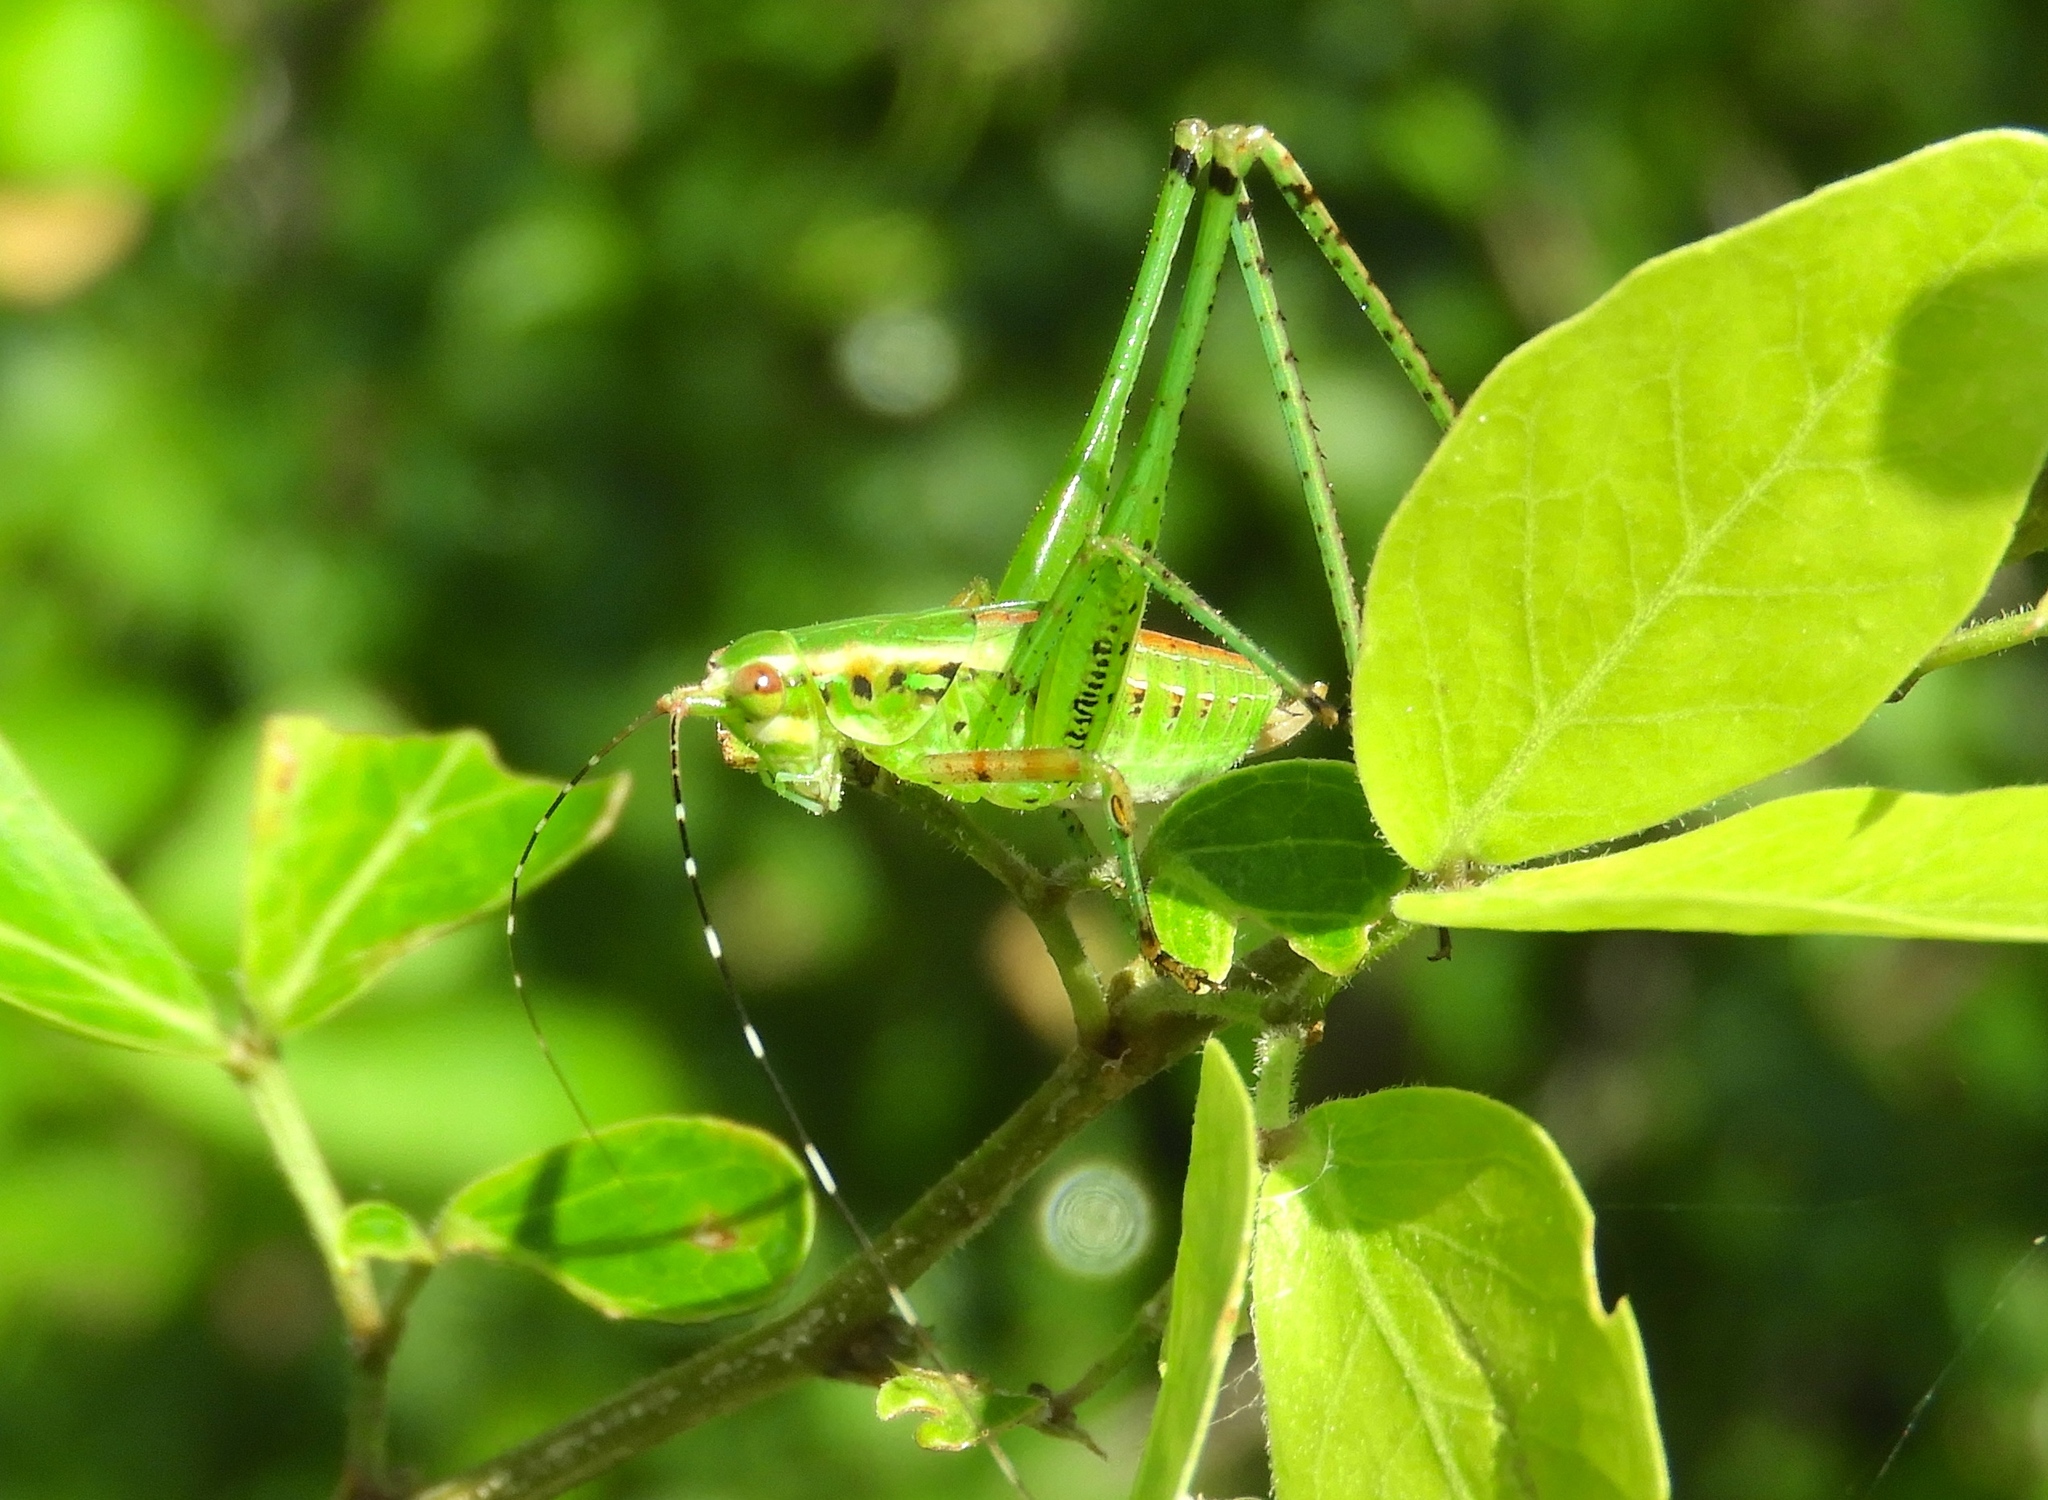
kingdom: Animalia
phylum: Arthropoda
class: Insecta
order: Orthoptera
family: Tettigoniidae
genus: Scudderia
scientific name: Scudderia
